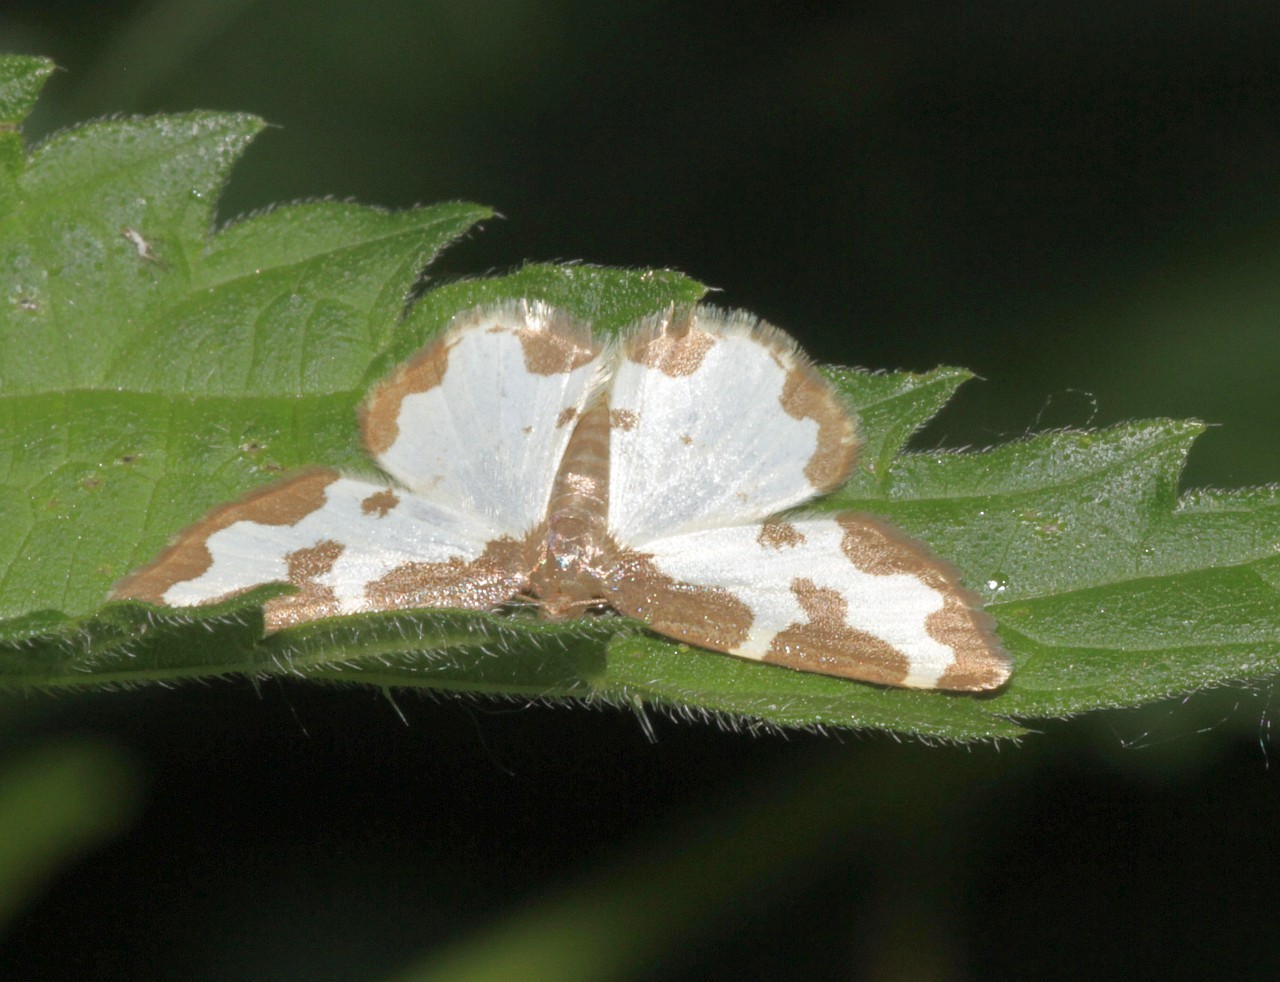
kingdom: Animalia
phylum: Arthropoda
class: Insecta
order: Lepidoptera
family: Geometridae
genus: Lomaspilis
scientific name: Lomaspilis marginata
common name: Clouded border
